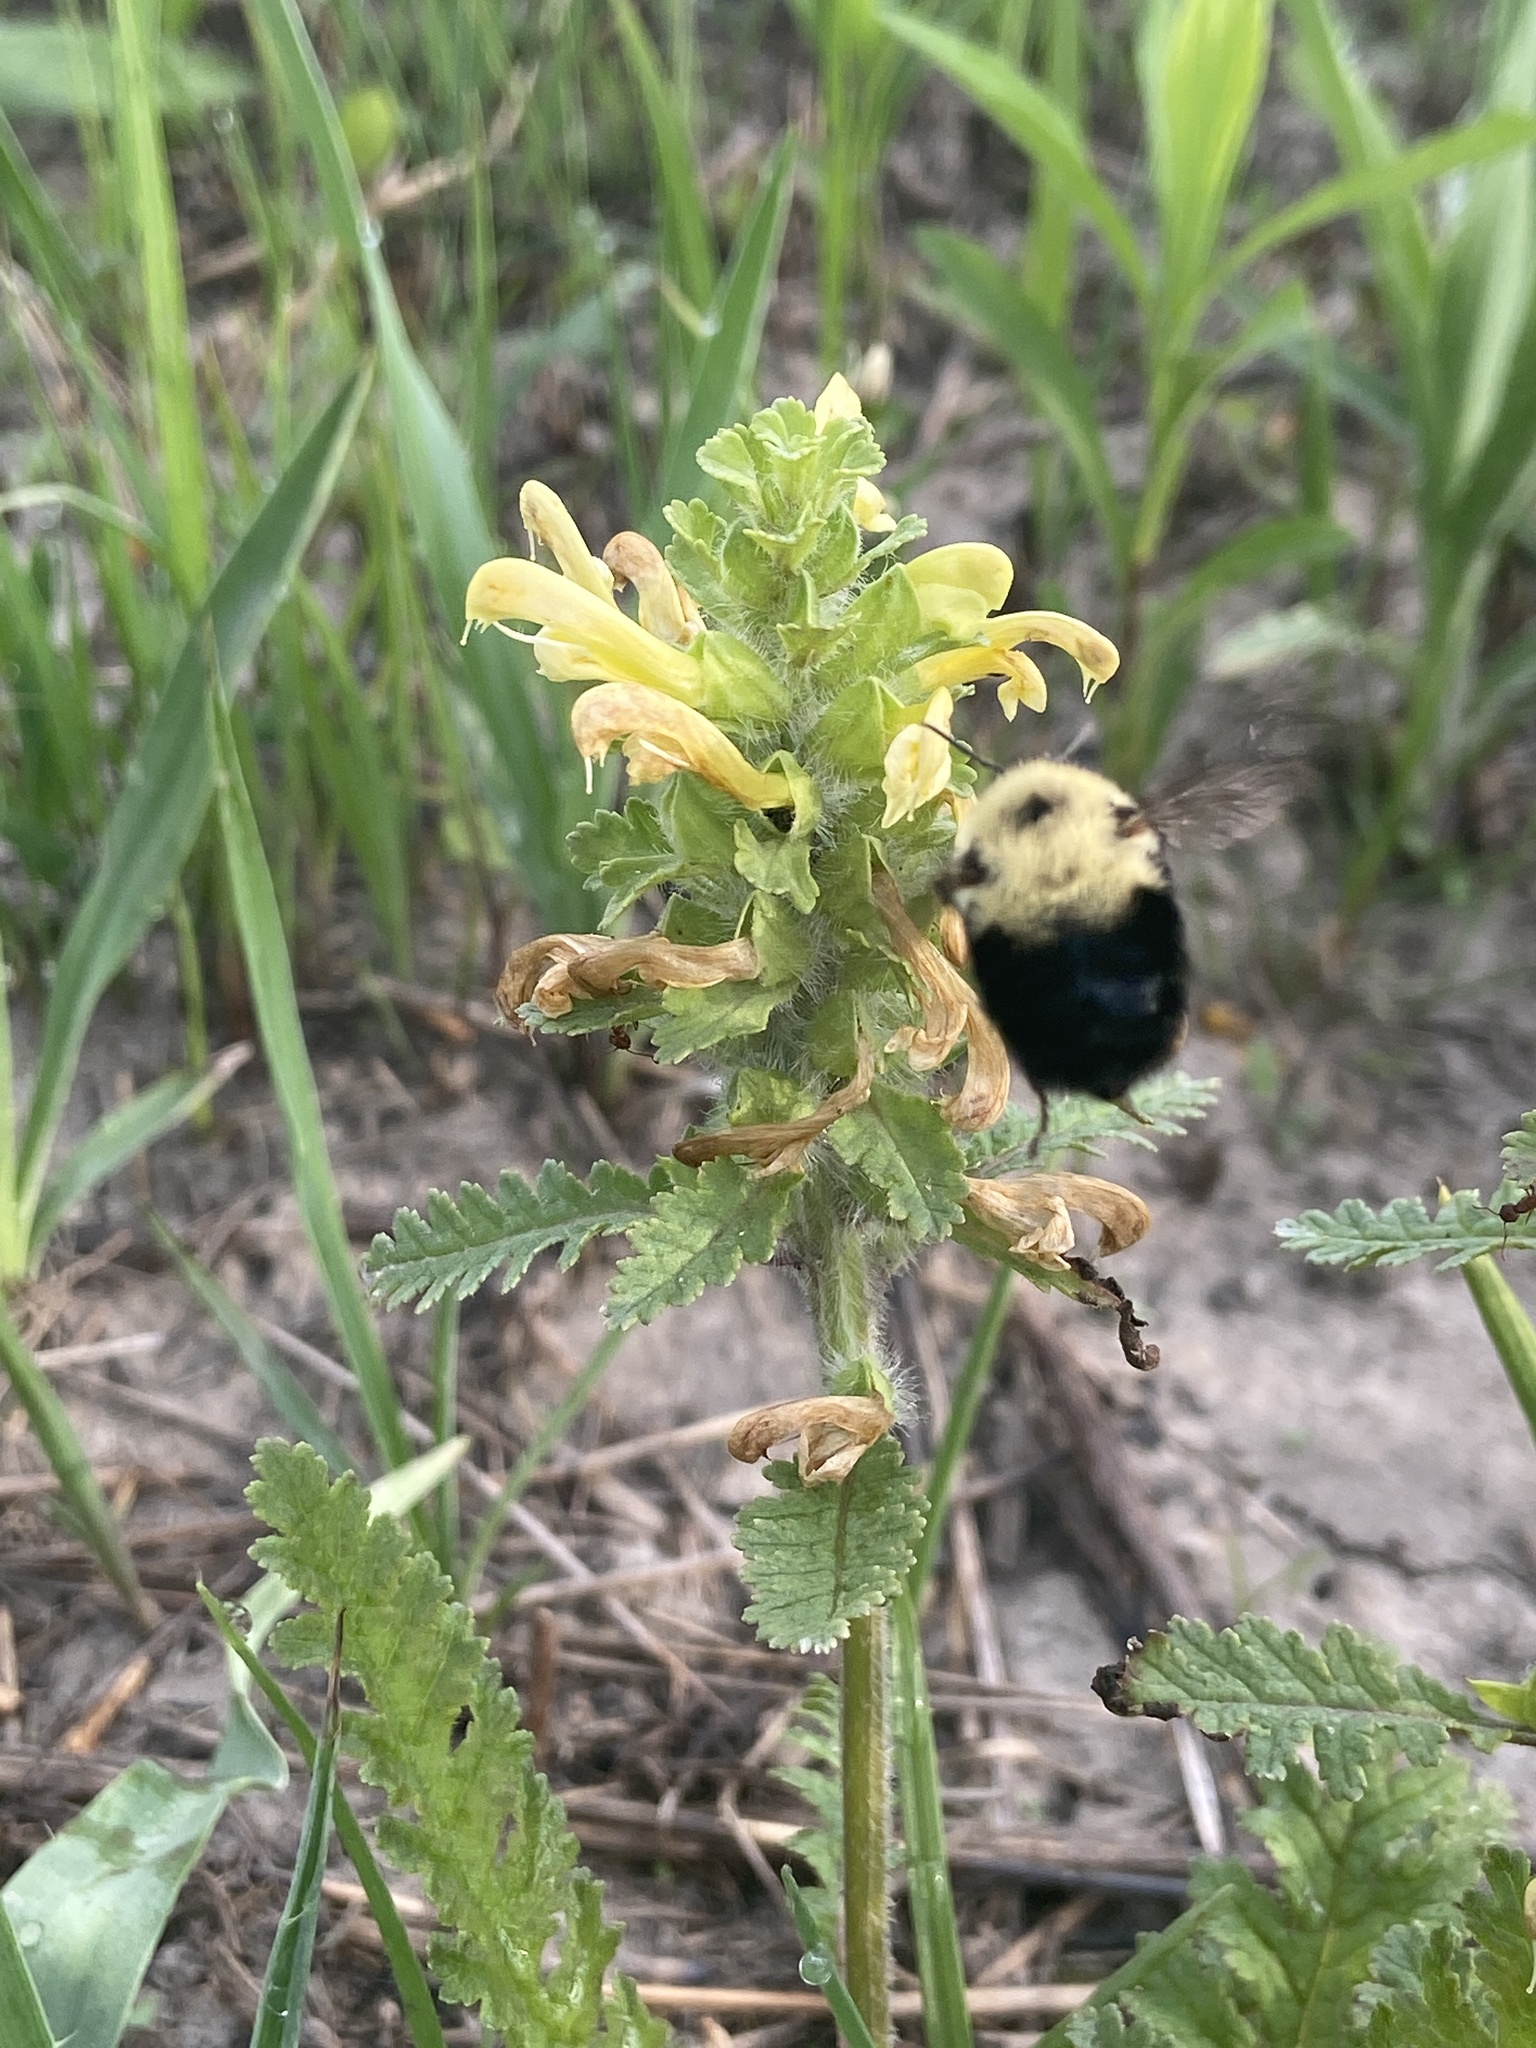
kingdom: Animalia
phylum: Arthropoda
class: Insecta
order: Hymenoptera
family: Apidae
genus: Bombus
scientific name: Bombus bimaculatus
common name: Two-spotted bumble bee
